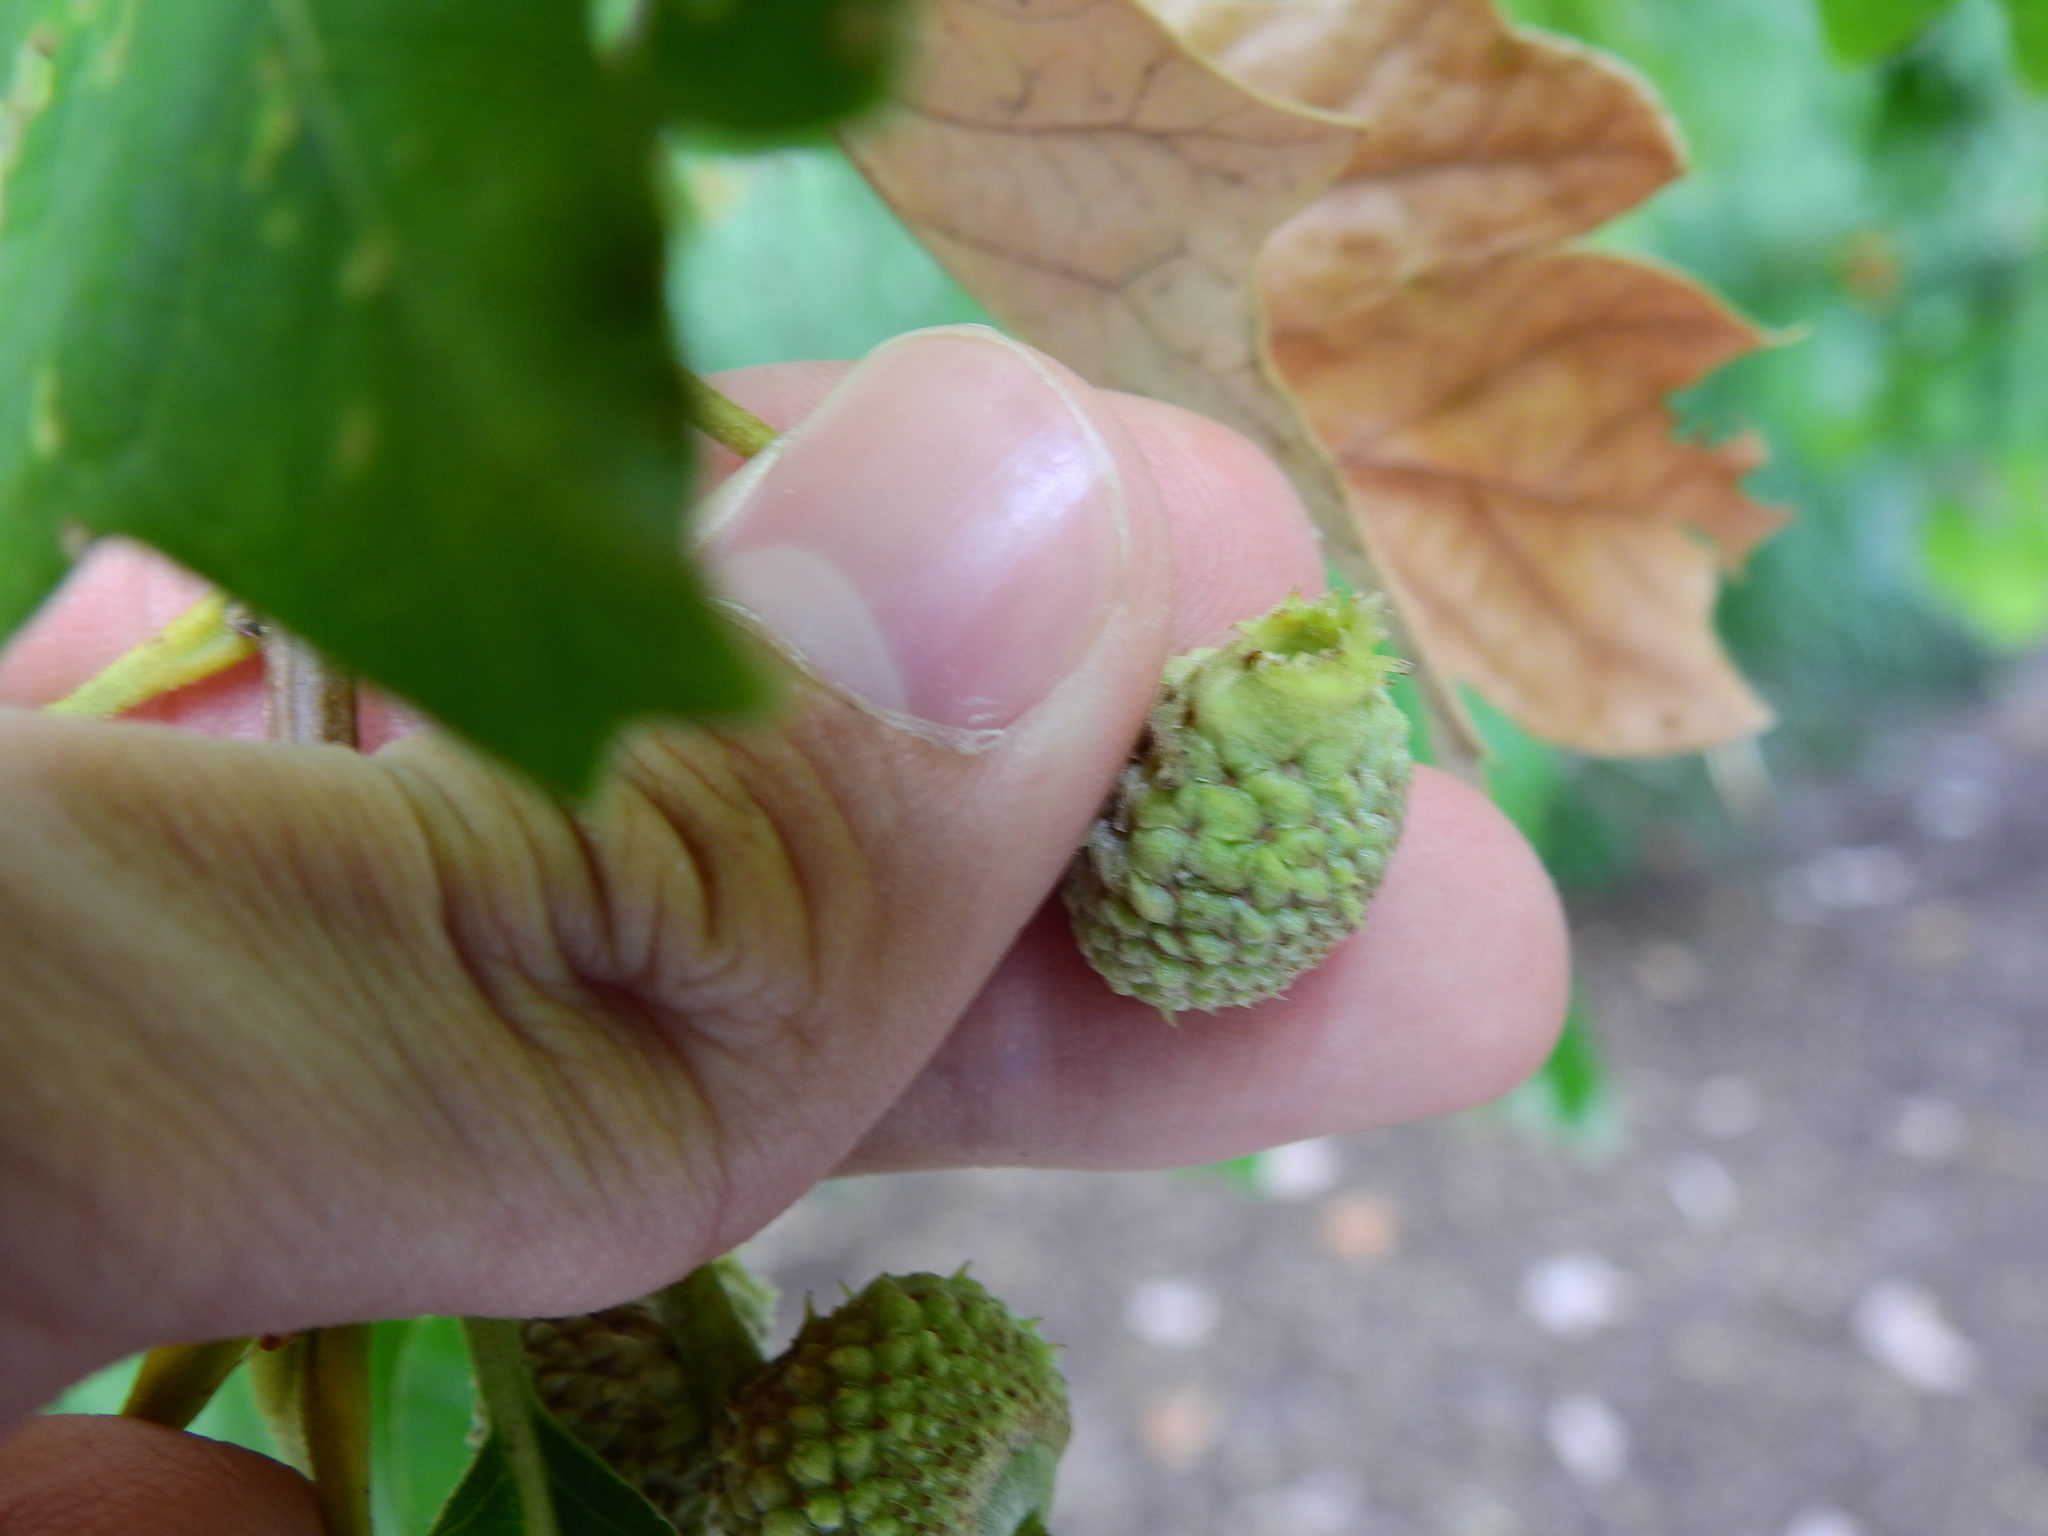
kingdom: Animalia
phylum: Arthropoda
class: Insecta
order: Hymenoptera
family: Cynipidae
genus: Andricus
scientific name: Andricus
